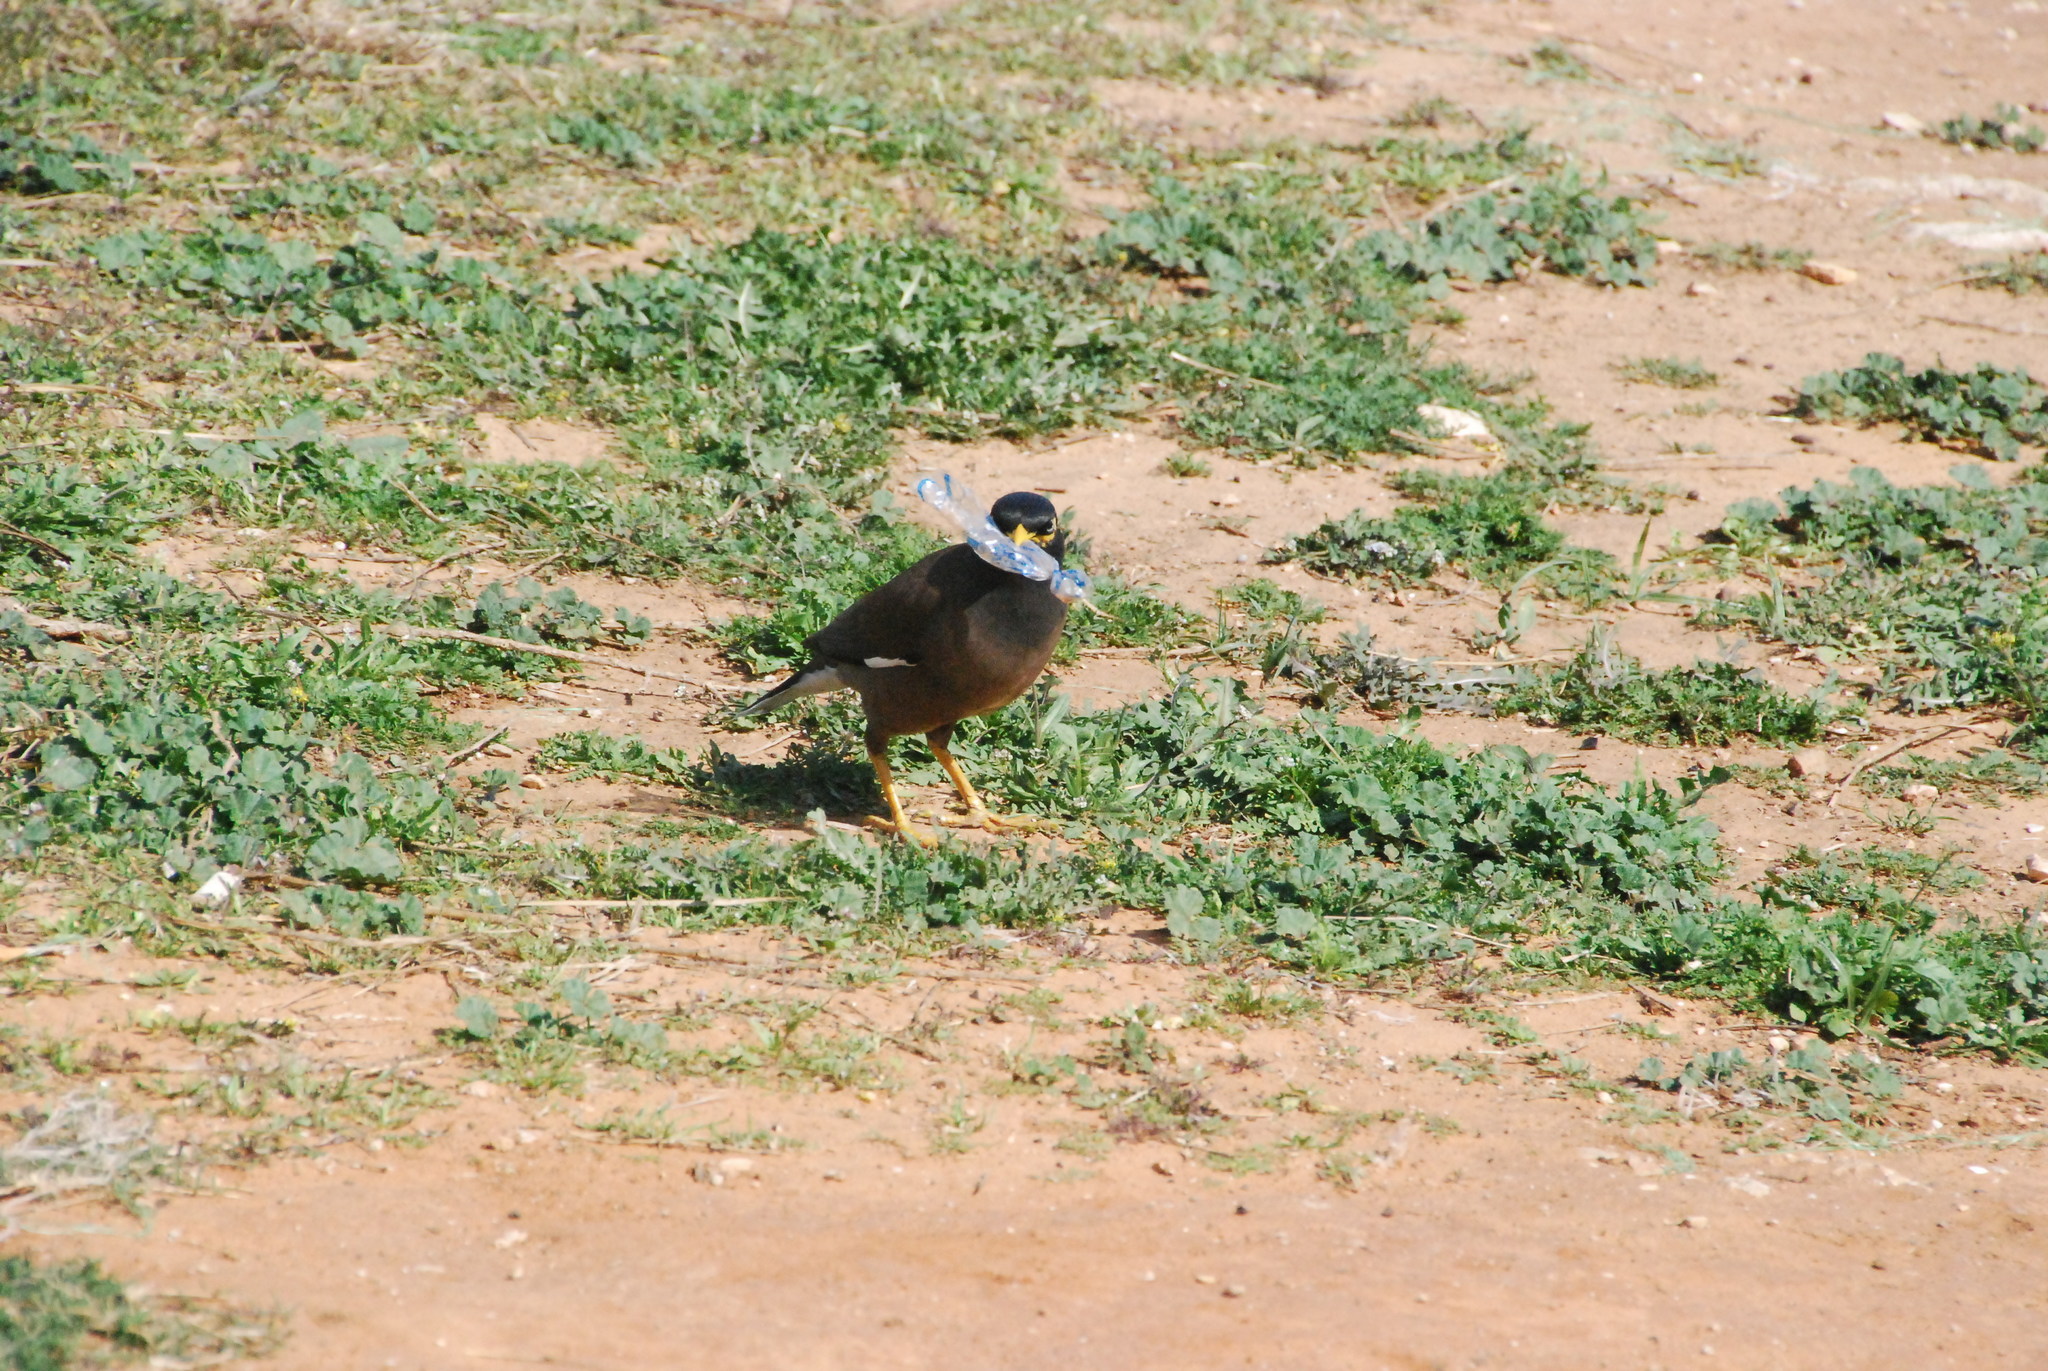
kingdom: Animalia
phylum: Chordata
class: Aves
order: Passeriformes
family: Sturnidae
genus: Acridotheres
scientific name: Acridotheres tristis
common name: Common myna
